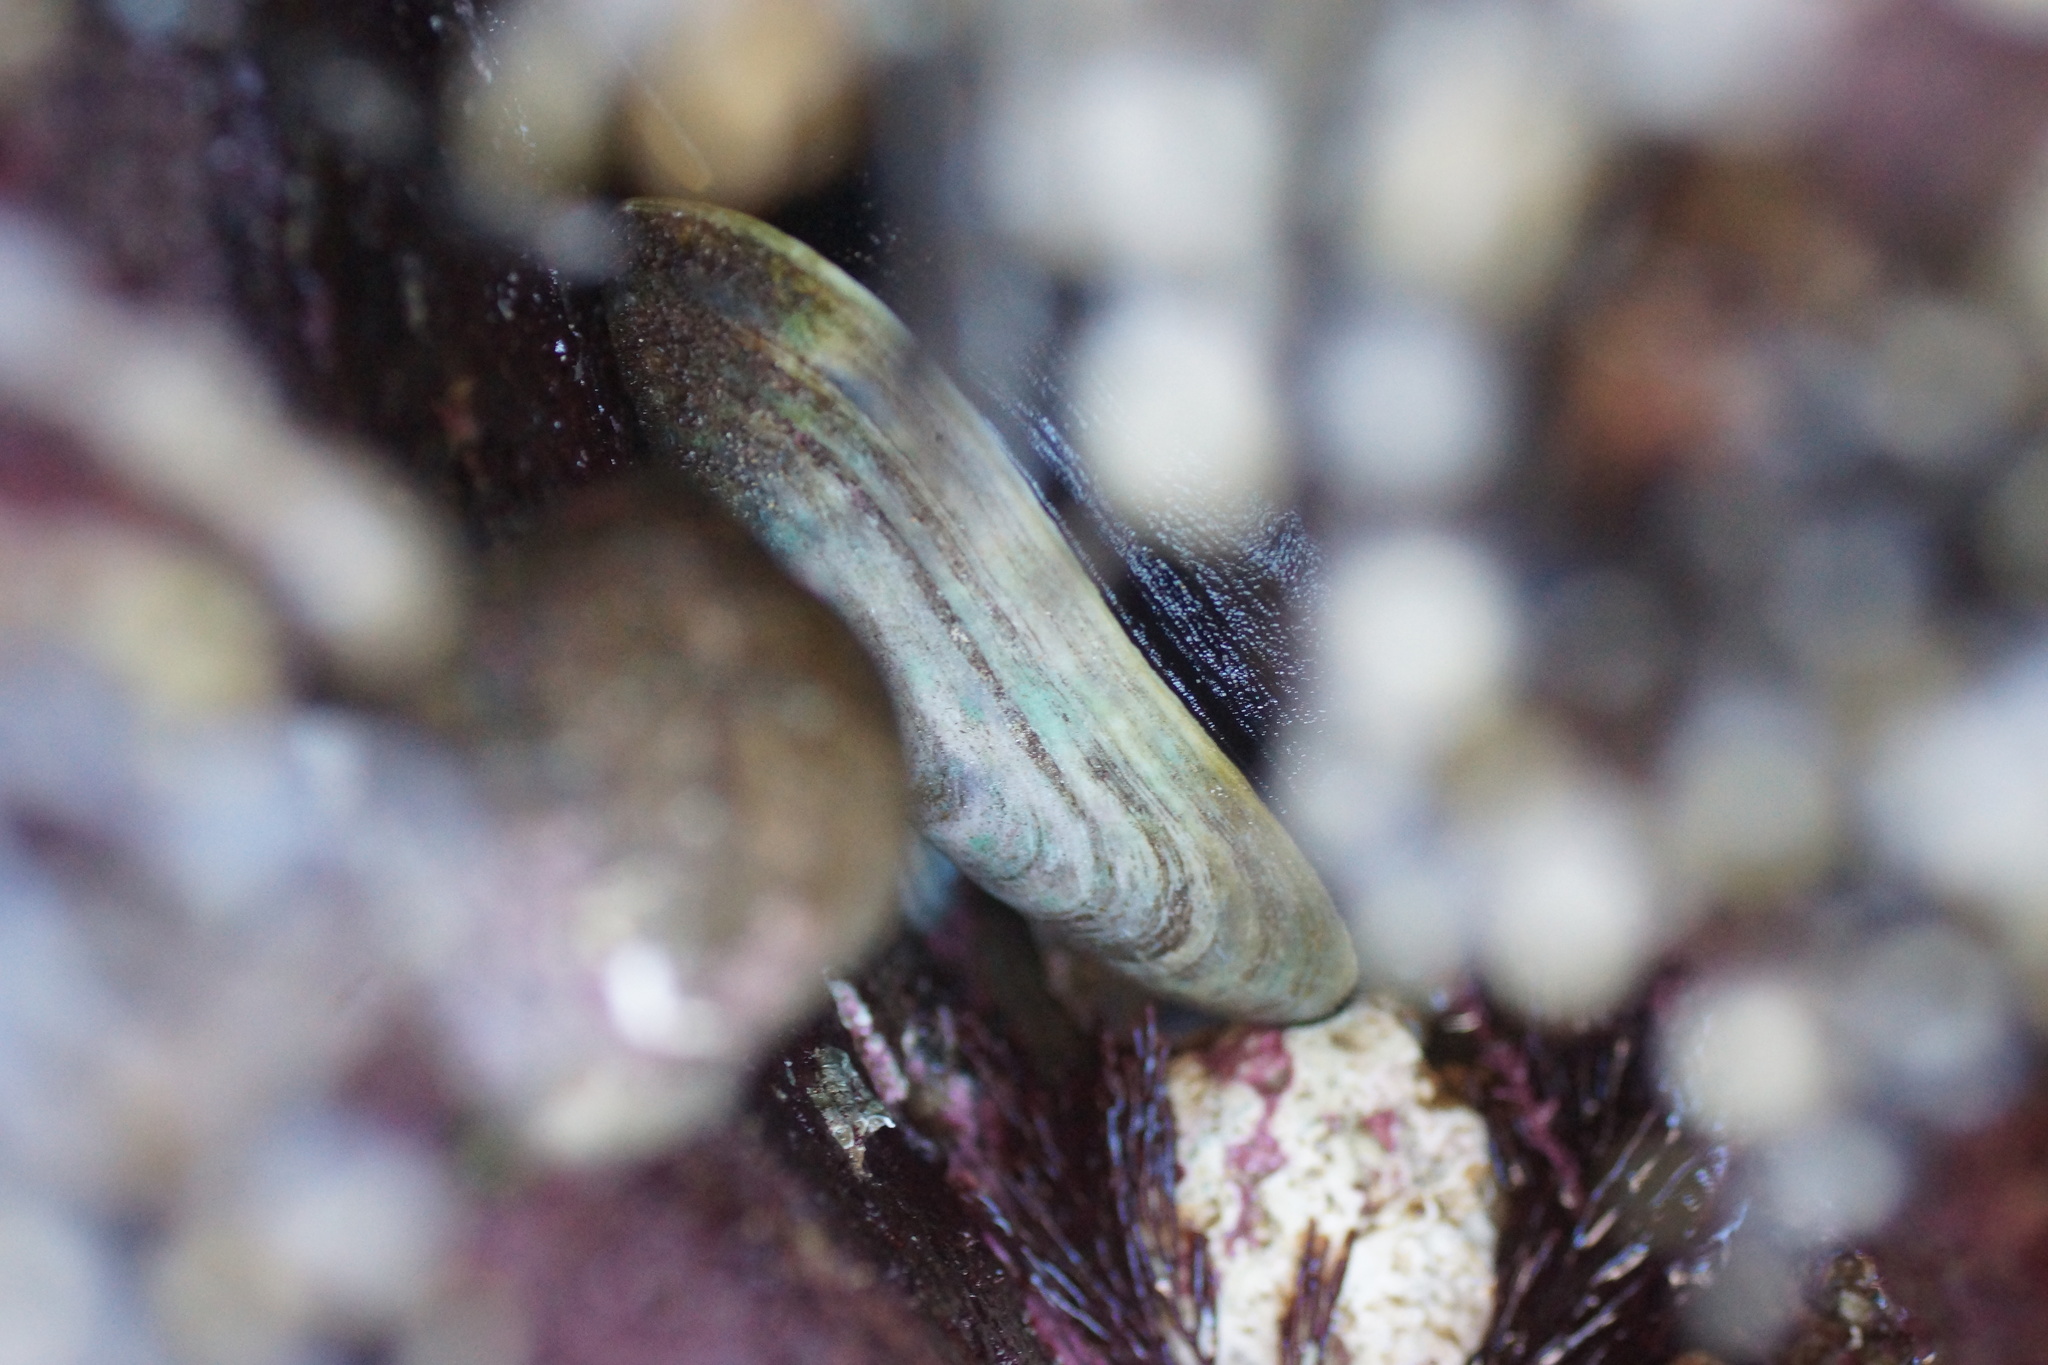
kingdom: Animalia
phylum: Mollusca
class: Gastropoda
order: Lepetellida
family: Fissurellidae
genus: Scutus
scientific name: Scutus antipodes
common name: Duckbill shell
